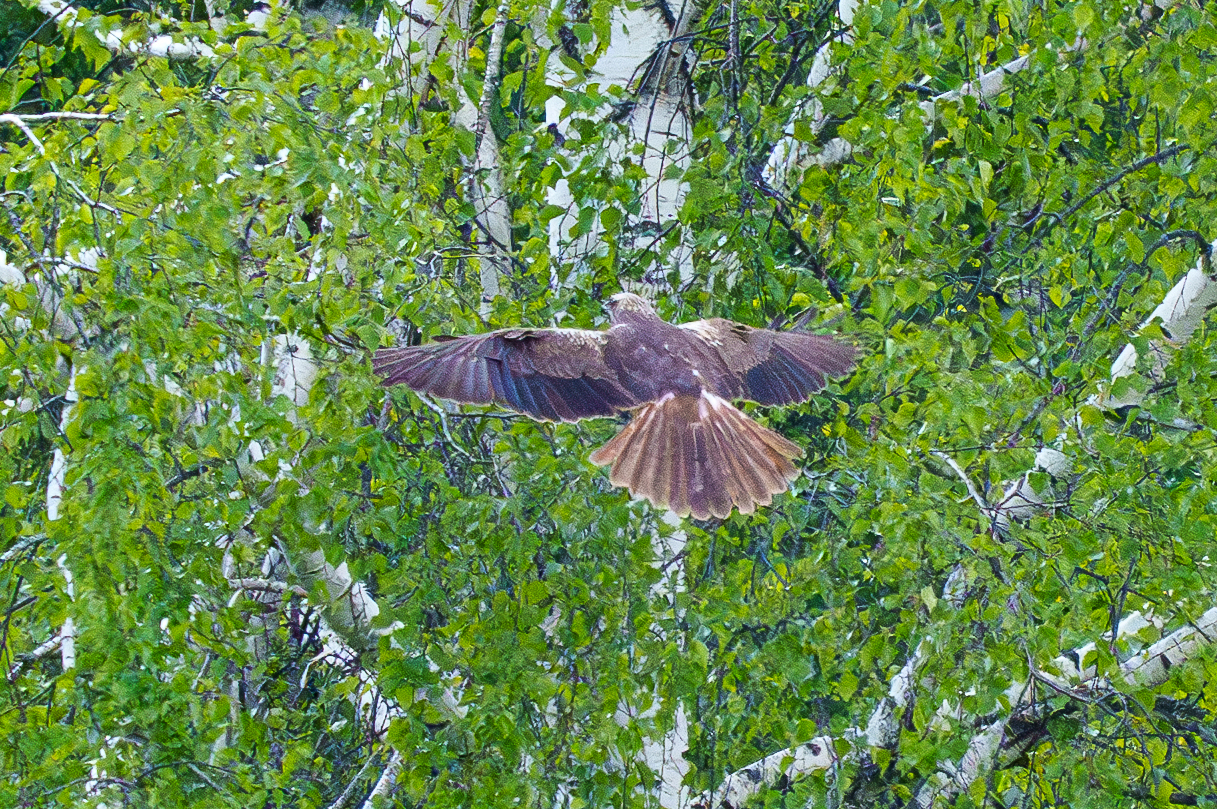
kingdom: Animalia
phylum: Chordata
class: Aves
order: Accipitriformes
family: Accipitridae
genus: Circus
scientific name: Circus aeruginosus
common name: Western marsh harrier
